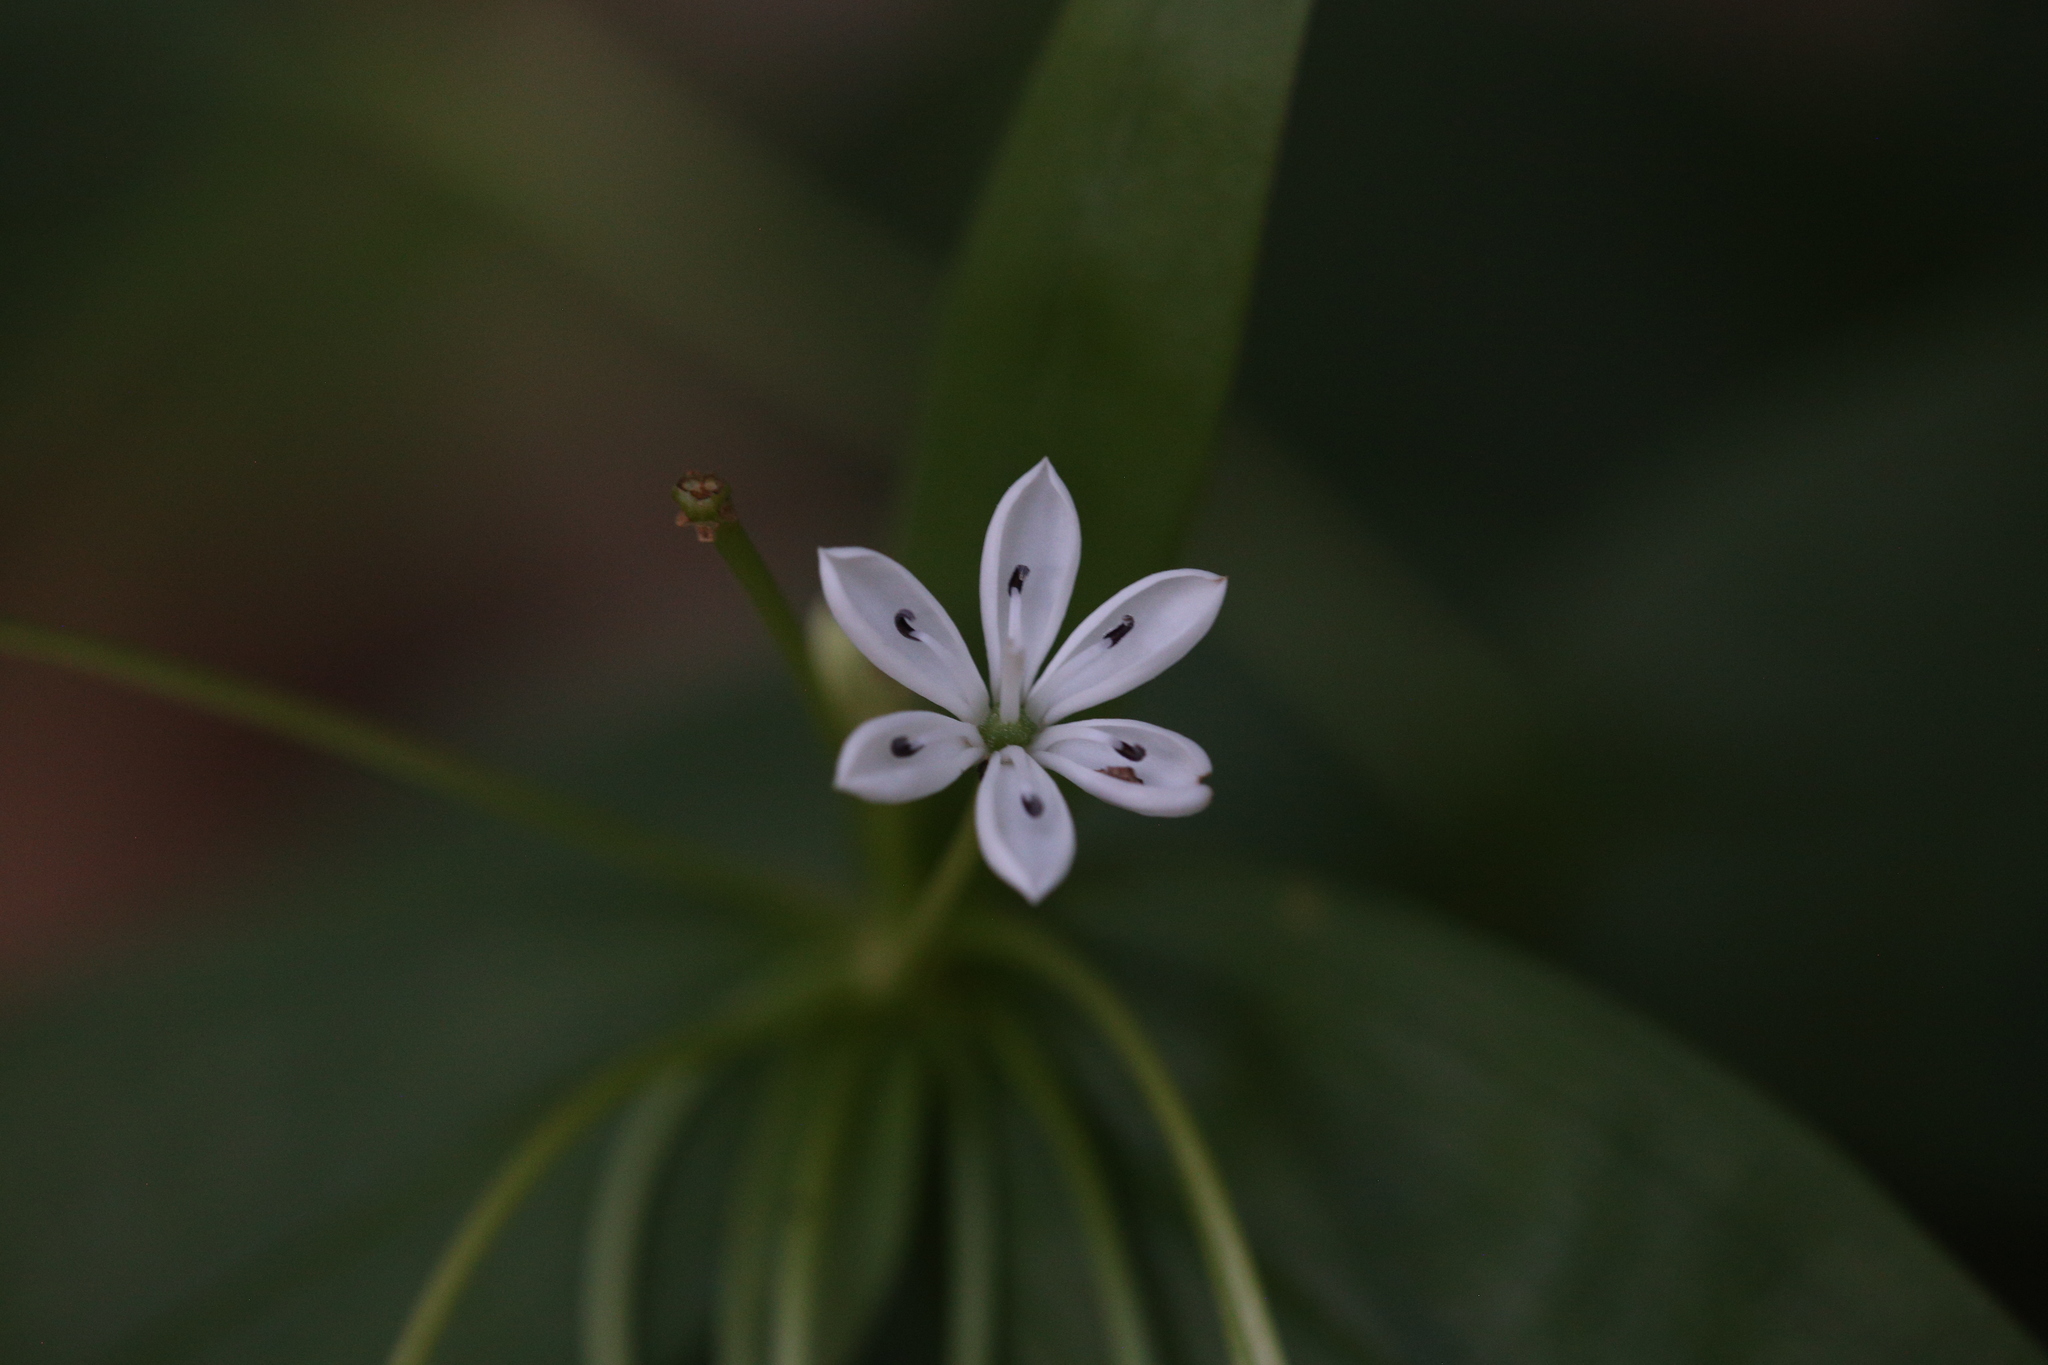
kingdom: Plantae
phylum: Tracheophyta
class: Liliopsida
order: Liliales
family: Colchicaceae
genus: Schelhammera
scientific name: Schelhammera multiflora
